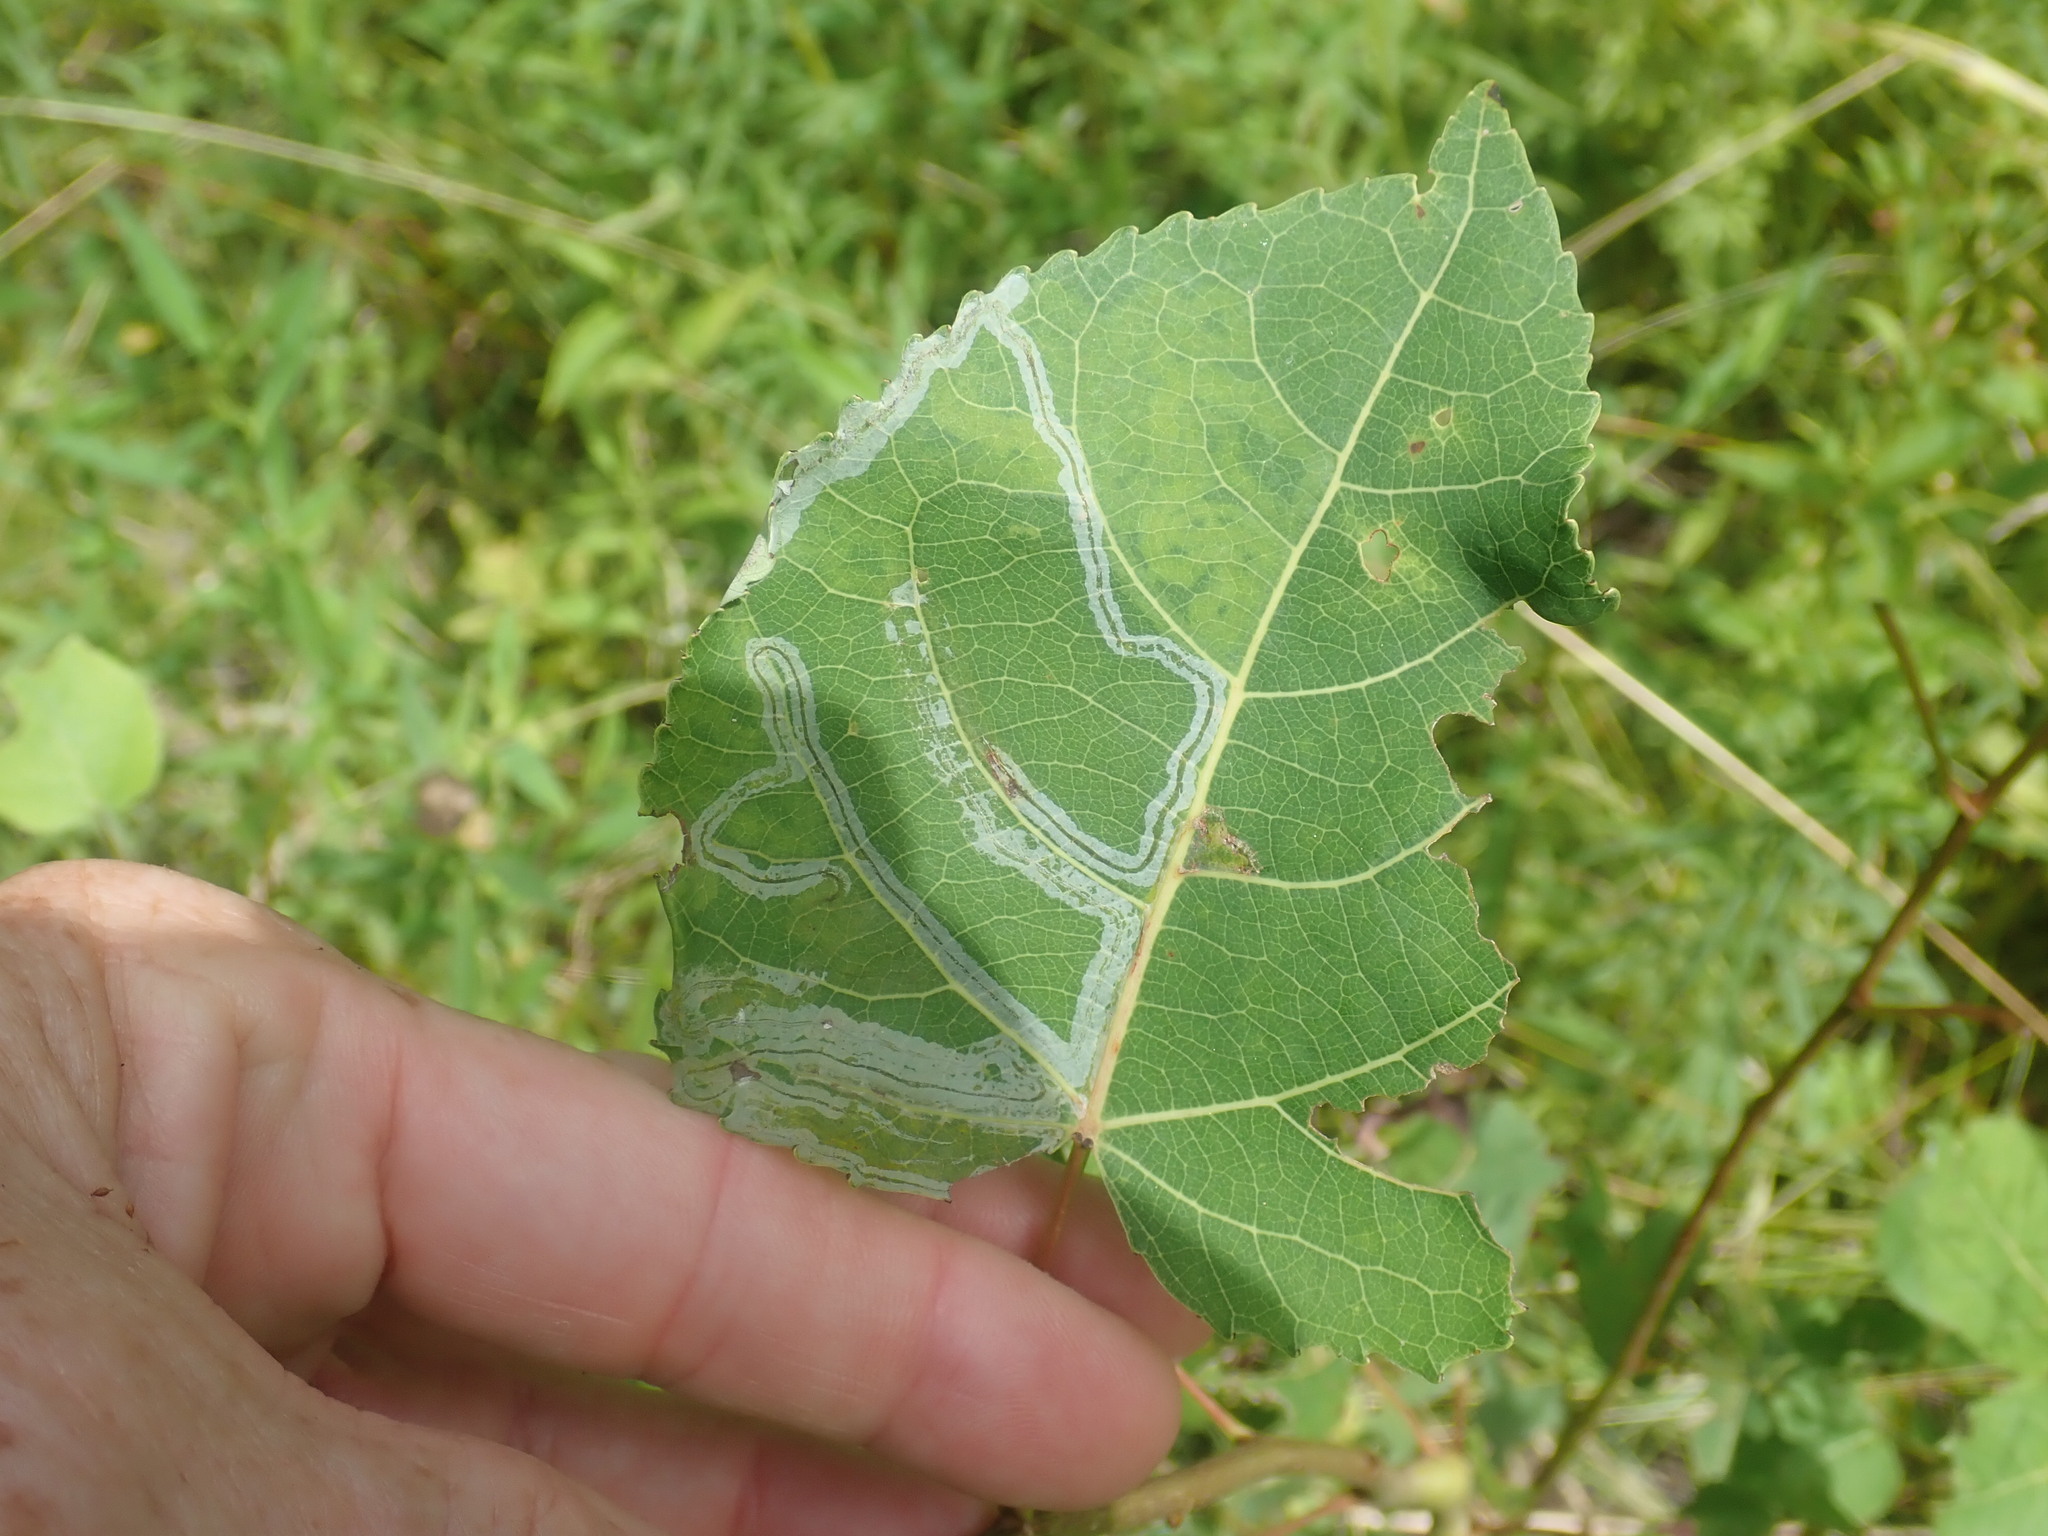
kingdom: Animalia
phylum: Arthropoda
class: Insecta
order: Lepidoptera
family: Gracillariidae
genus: Phyllocnistis
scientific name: Phyllocnistis populiella
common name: Aspen serpentine leafminer moth
